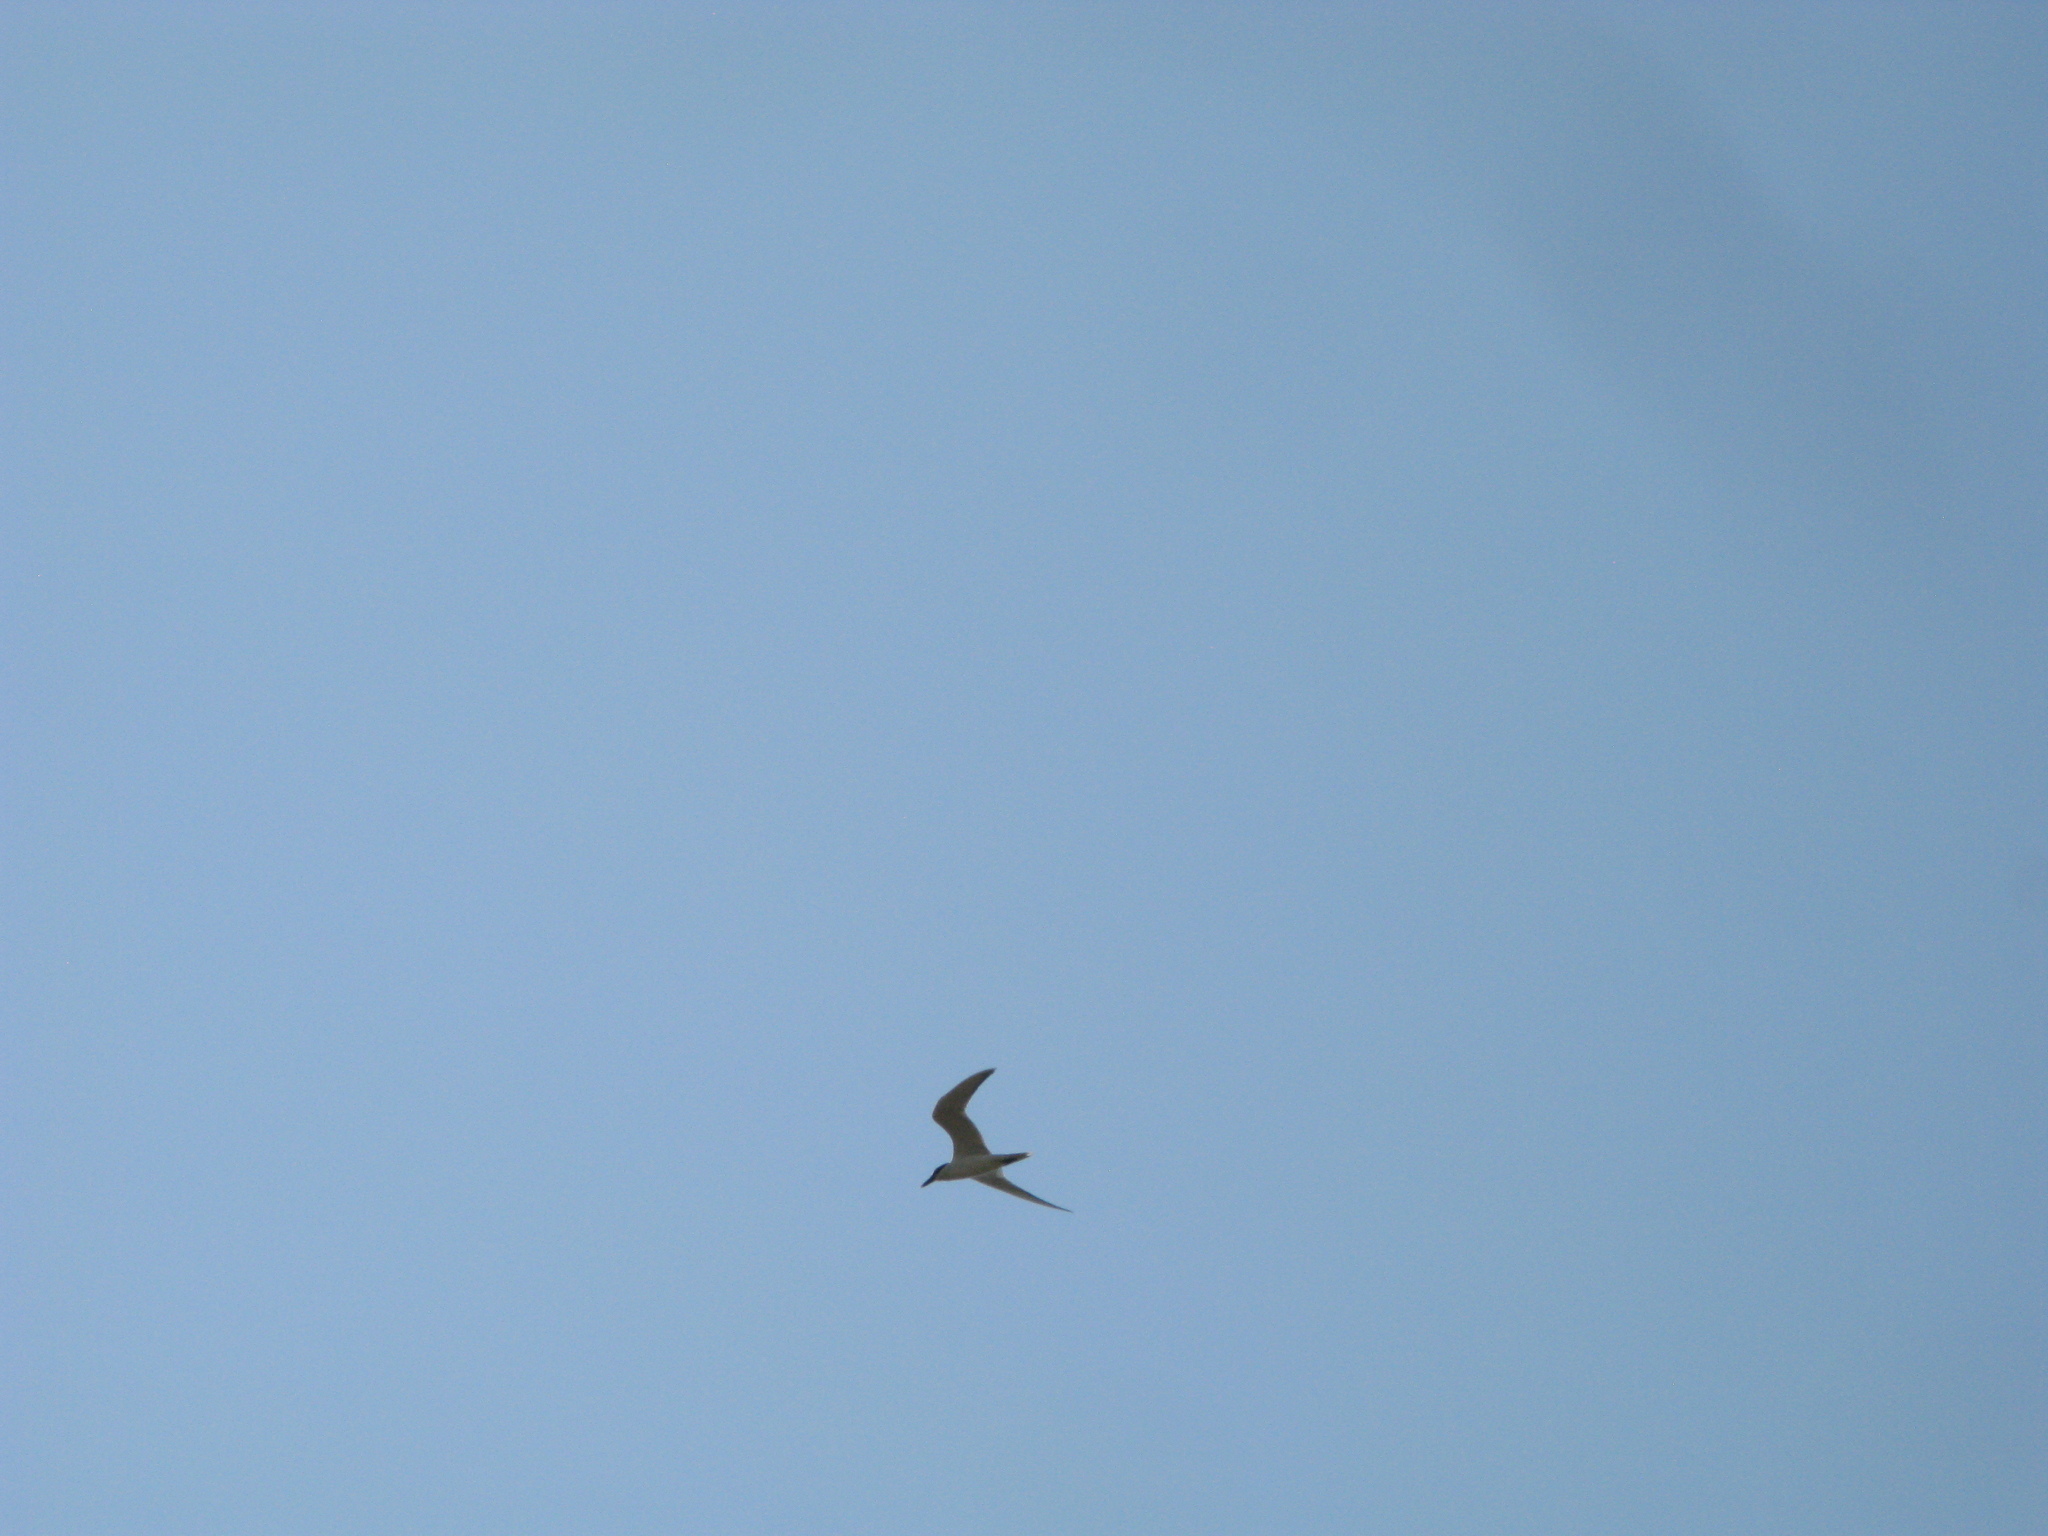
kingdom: Animalia
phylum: Chordata
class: Aves
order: Charadriiformes
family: Laridae
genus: Gelochelidon
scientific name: Gelochelidon nilotica
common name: Gull-billed tern
